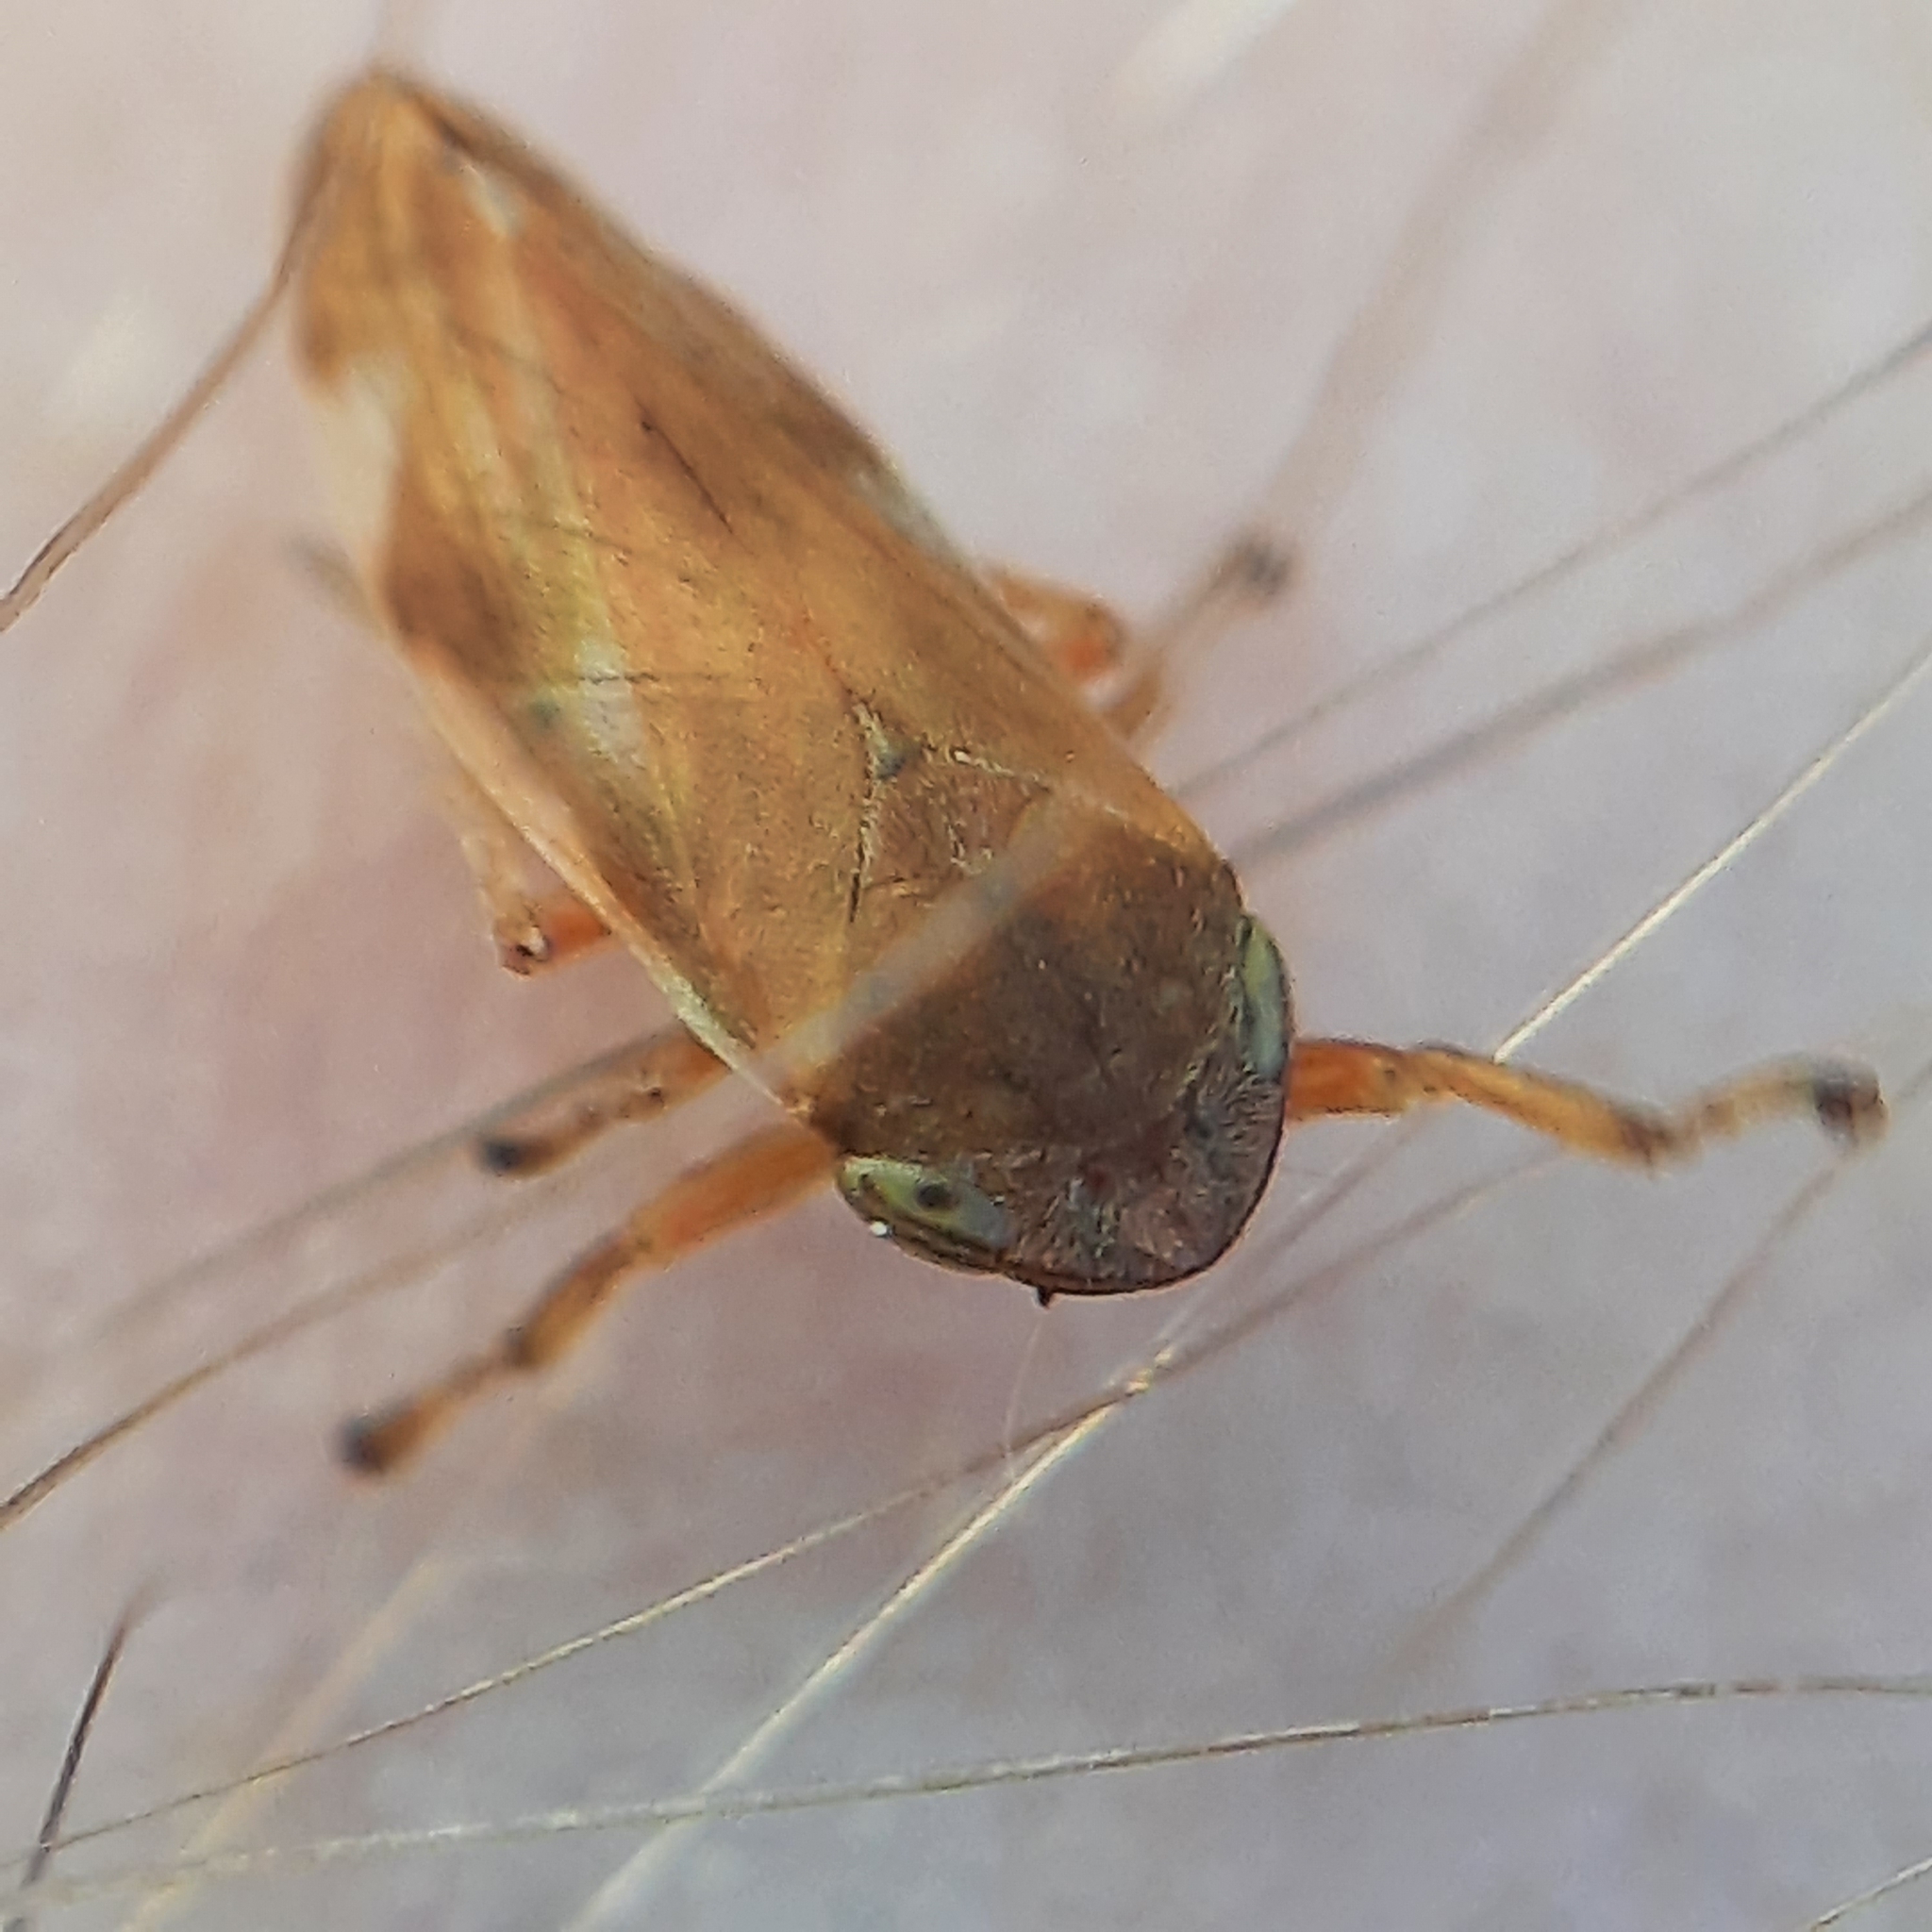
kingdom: Animalia
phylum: Arthropoda
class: Insecta
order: Hemiptera
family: Aphrophoridae
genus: Neophilaenus
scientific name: Neophilaenus campestris
